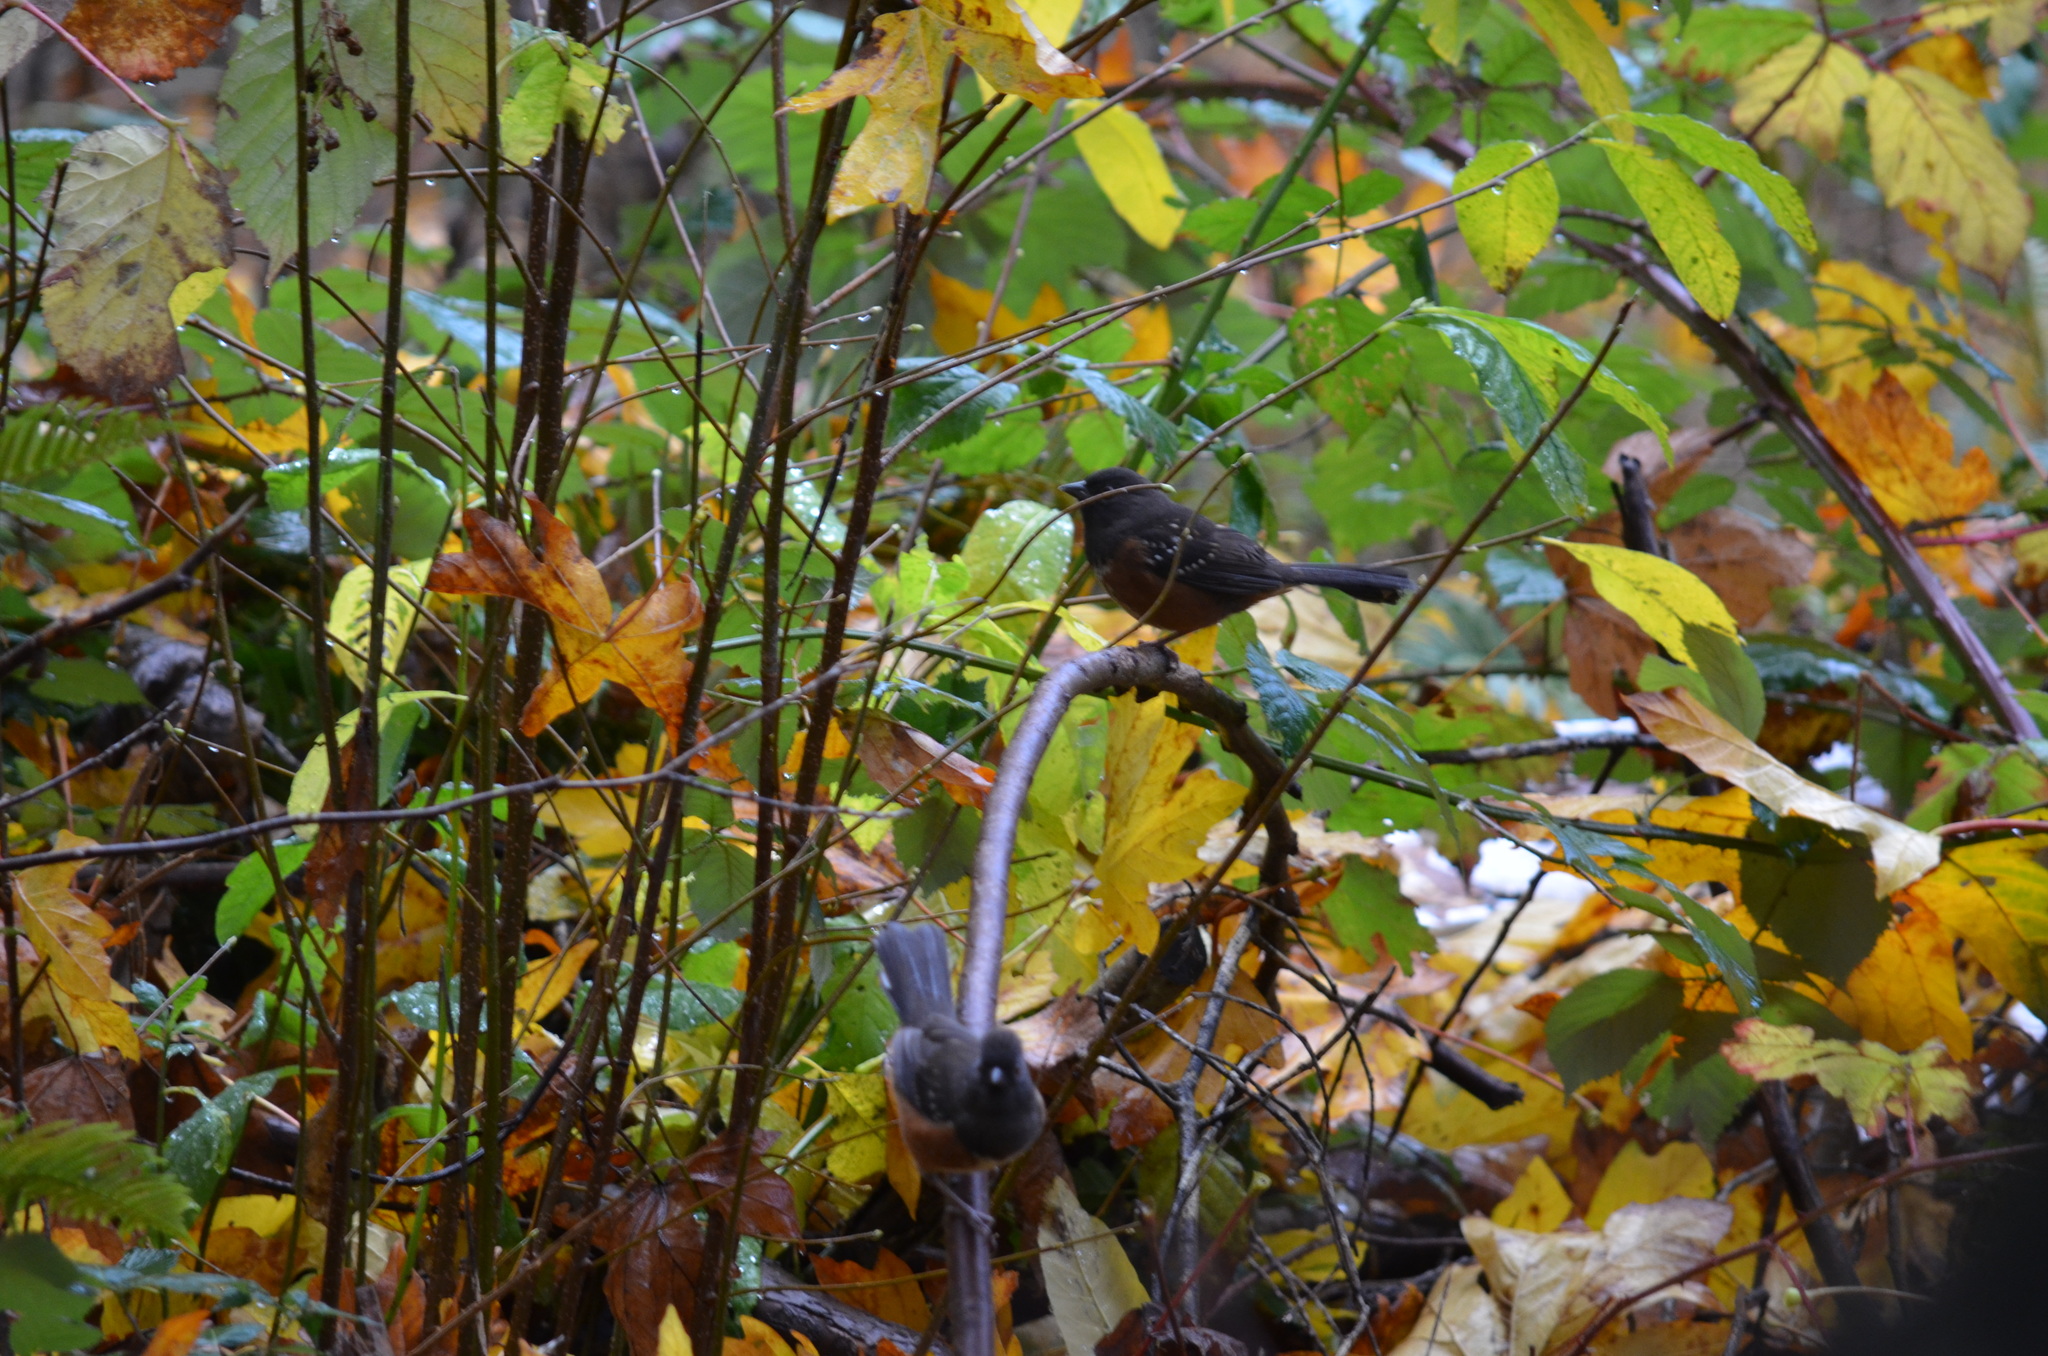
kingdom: Animalia
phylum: Chordata
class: Aves
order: Passeriformes
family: Passerellidae
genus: Pipilo
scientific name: Pipilo maculatus
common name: Spotted towhee
